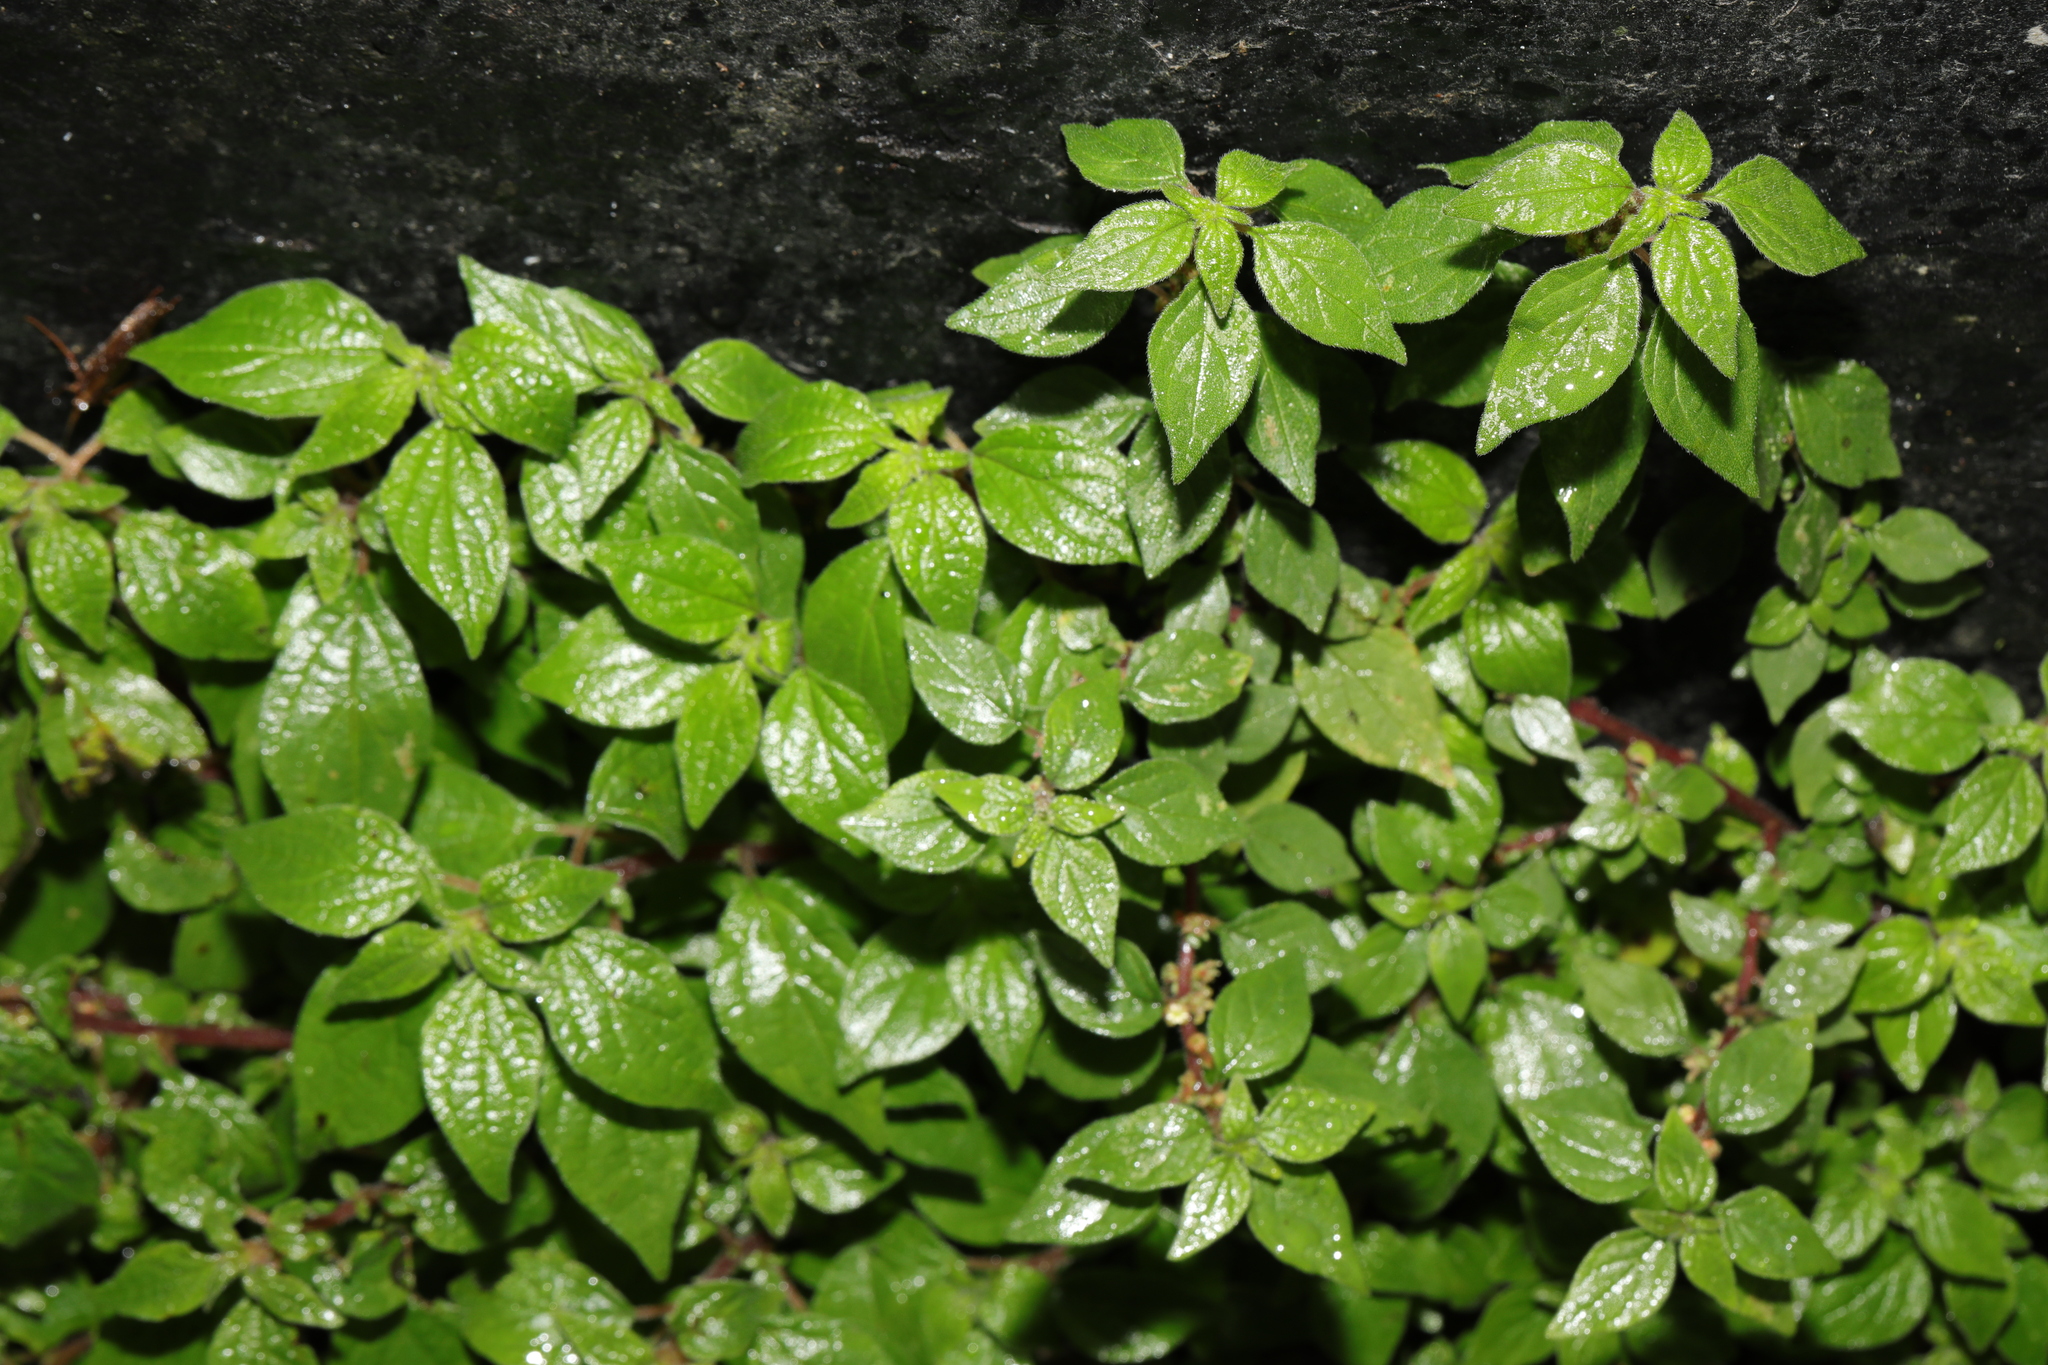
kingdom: Plantae
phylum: Tracheophyta
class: Magnoliopsida
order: Rosales
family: Urticaceae
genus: Parietaria
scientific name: Parietaria judaica
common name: Pellitory-of-the-wall
